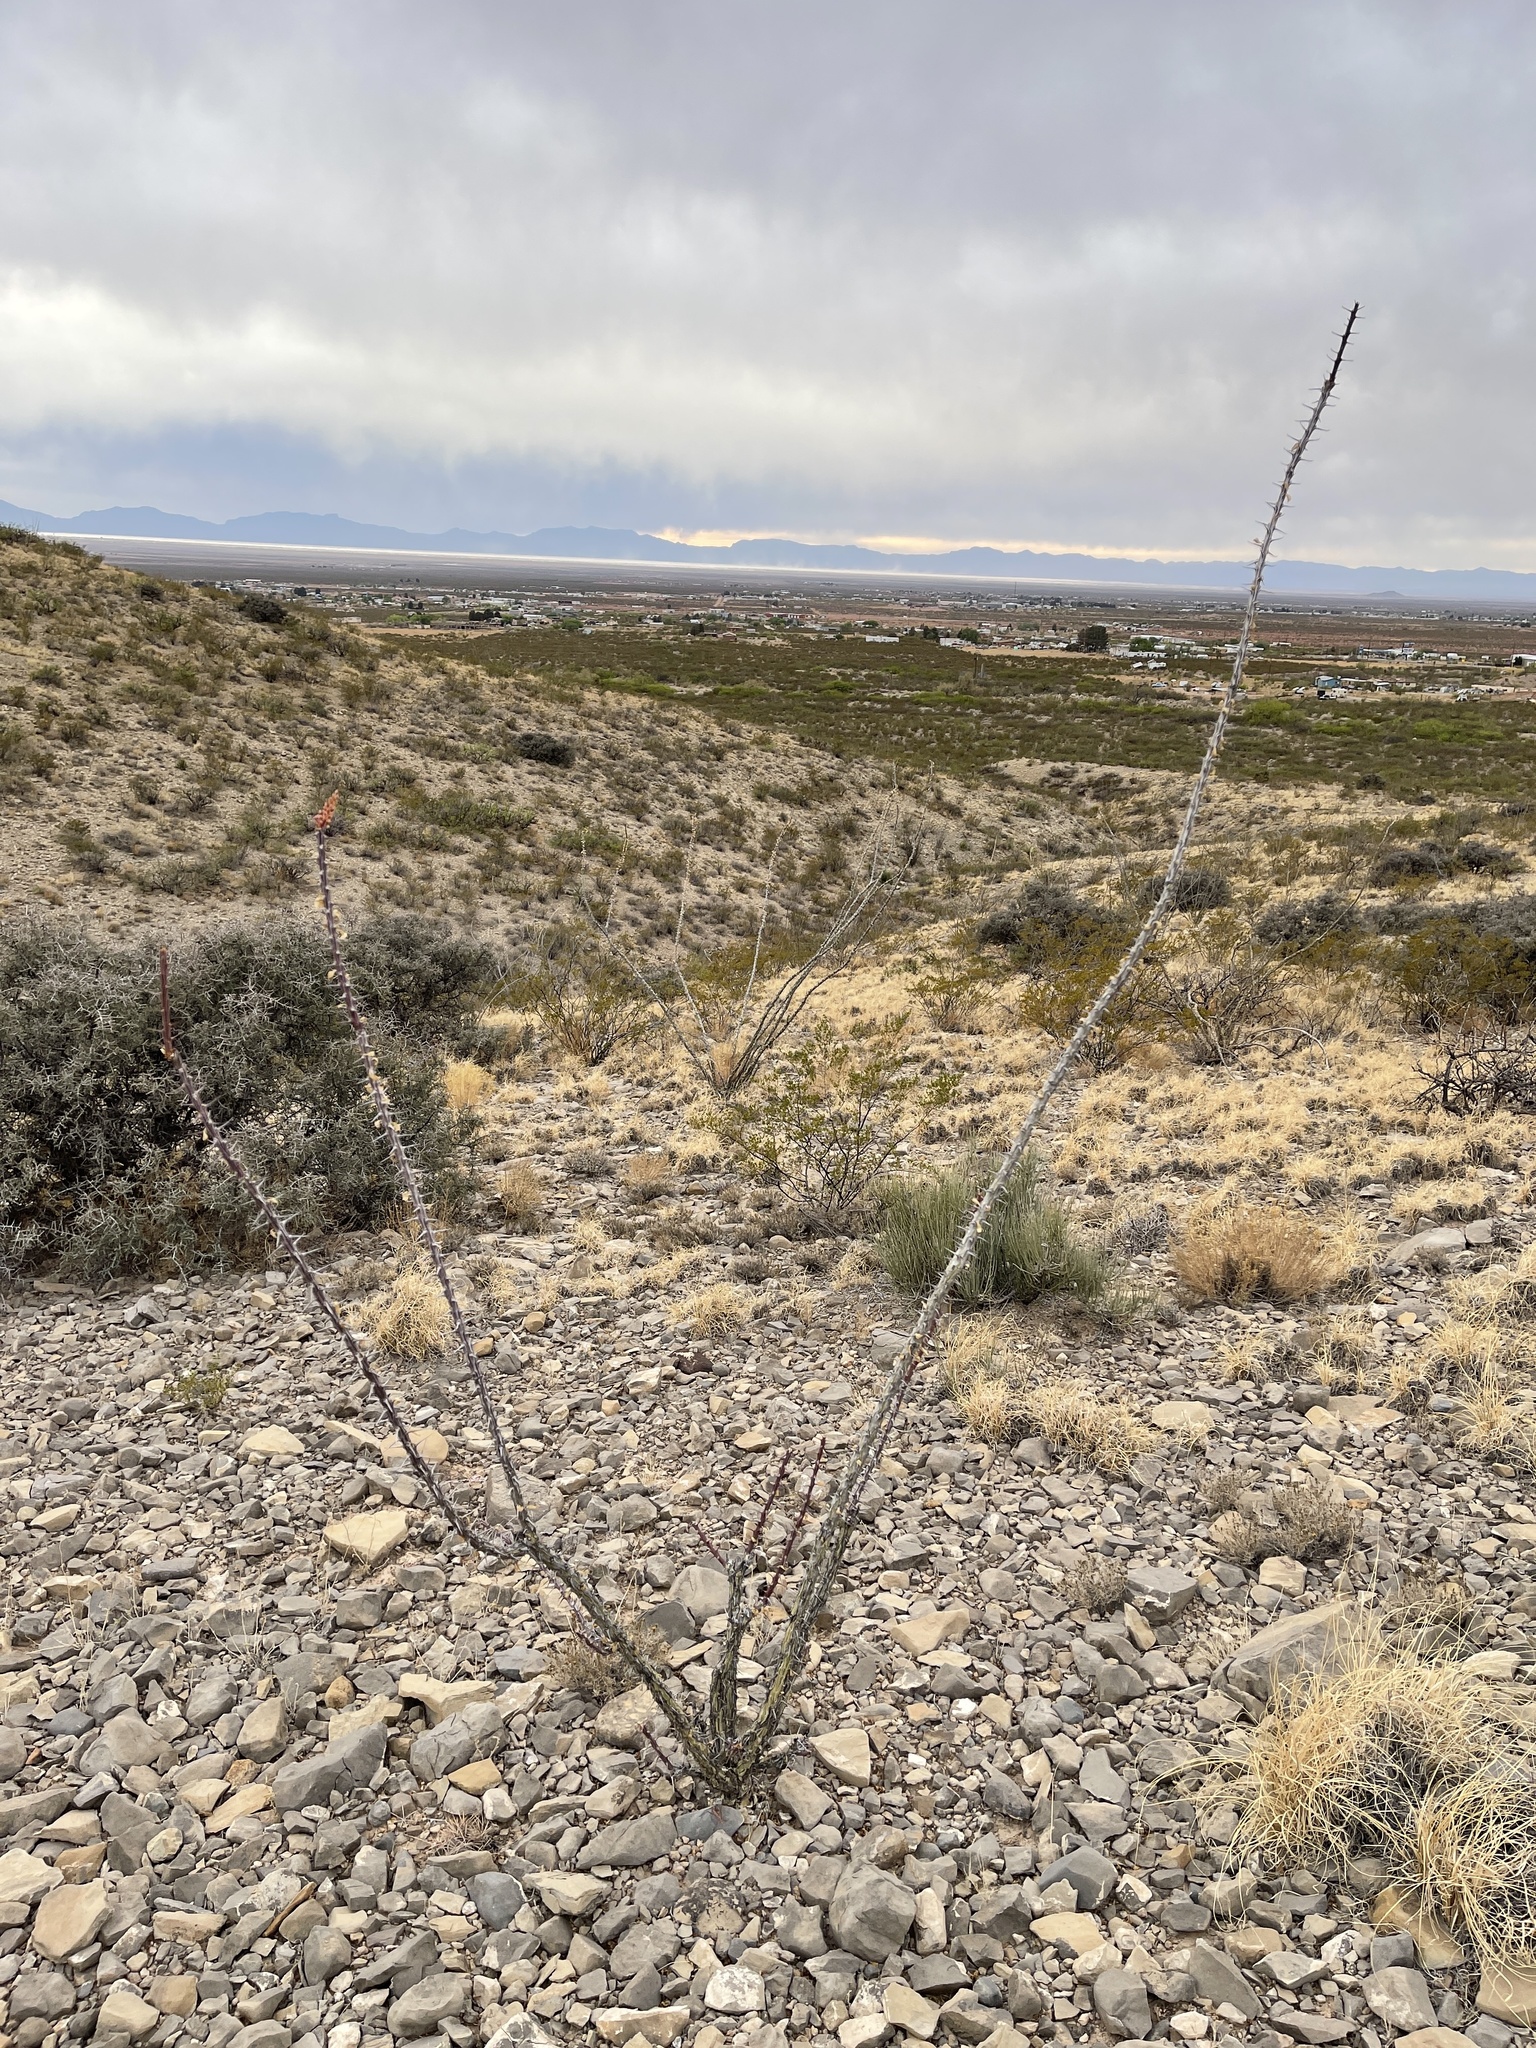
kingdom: Plantae
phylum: Tracheophyta
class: Magnoliopsida
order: Ericales
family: Fouquieriaceae
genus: Fouquieria
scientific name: Fouquieria splendens
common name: Vine-cactus
